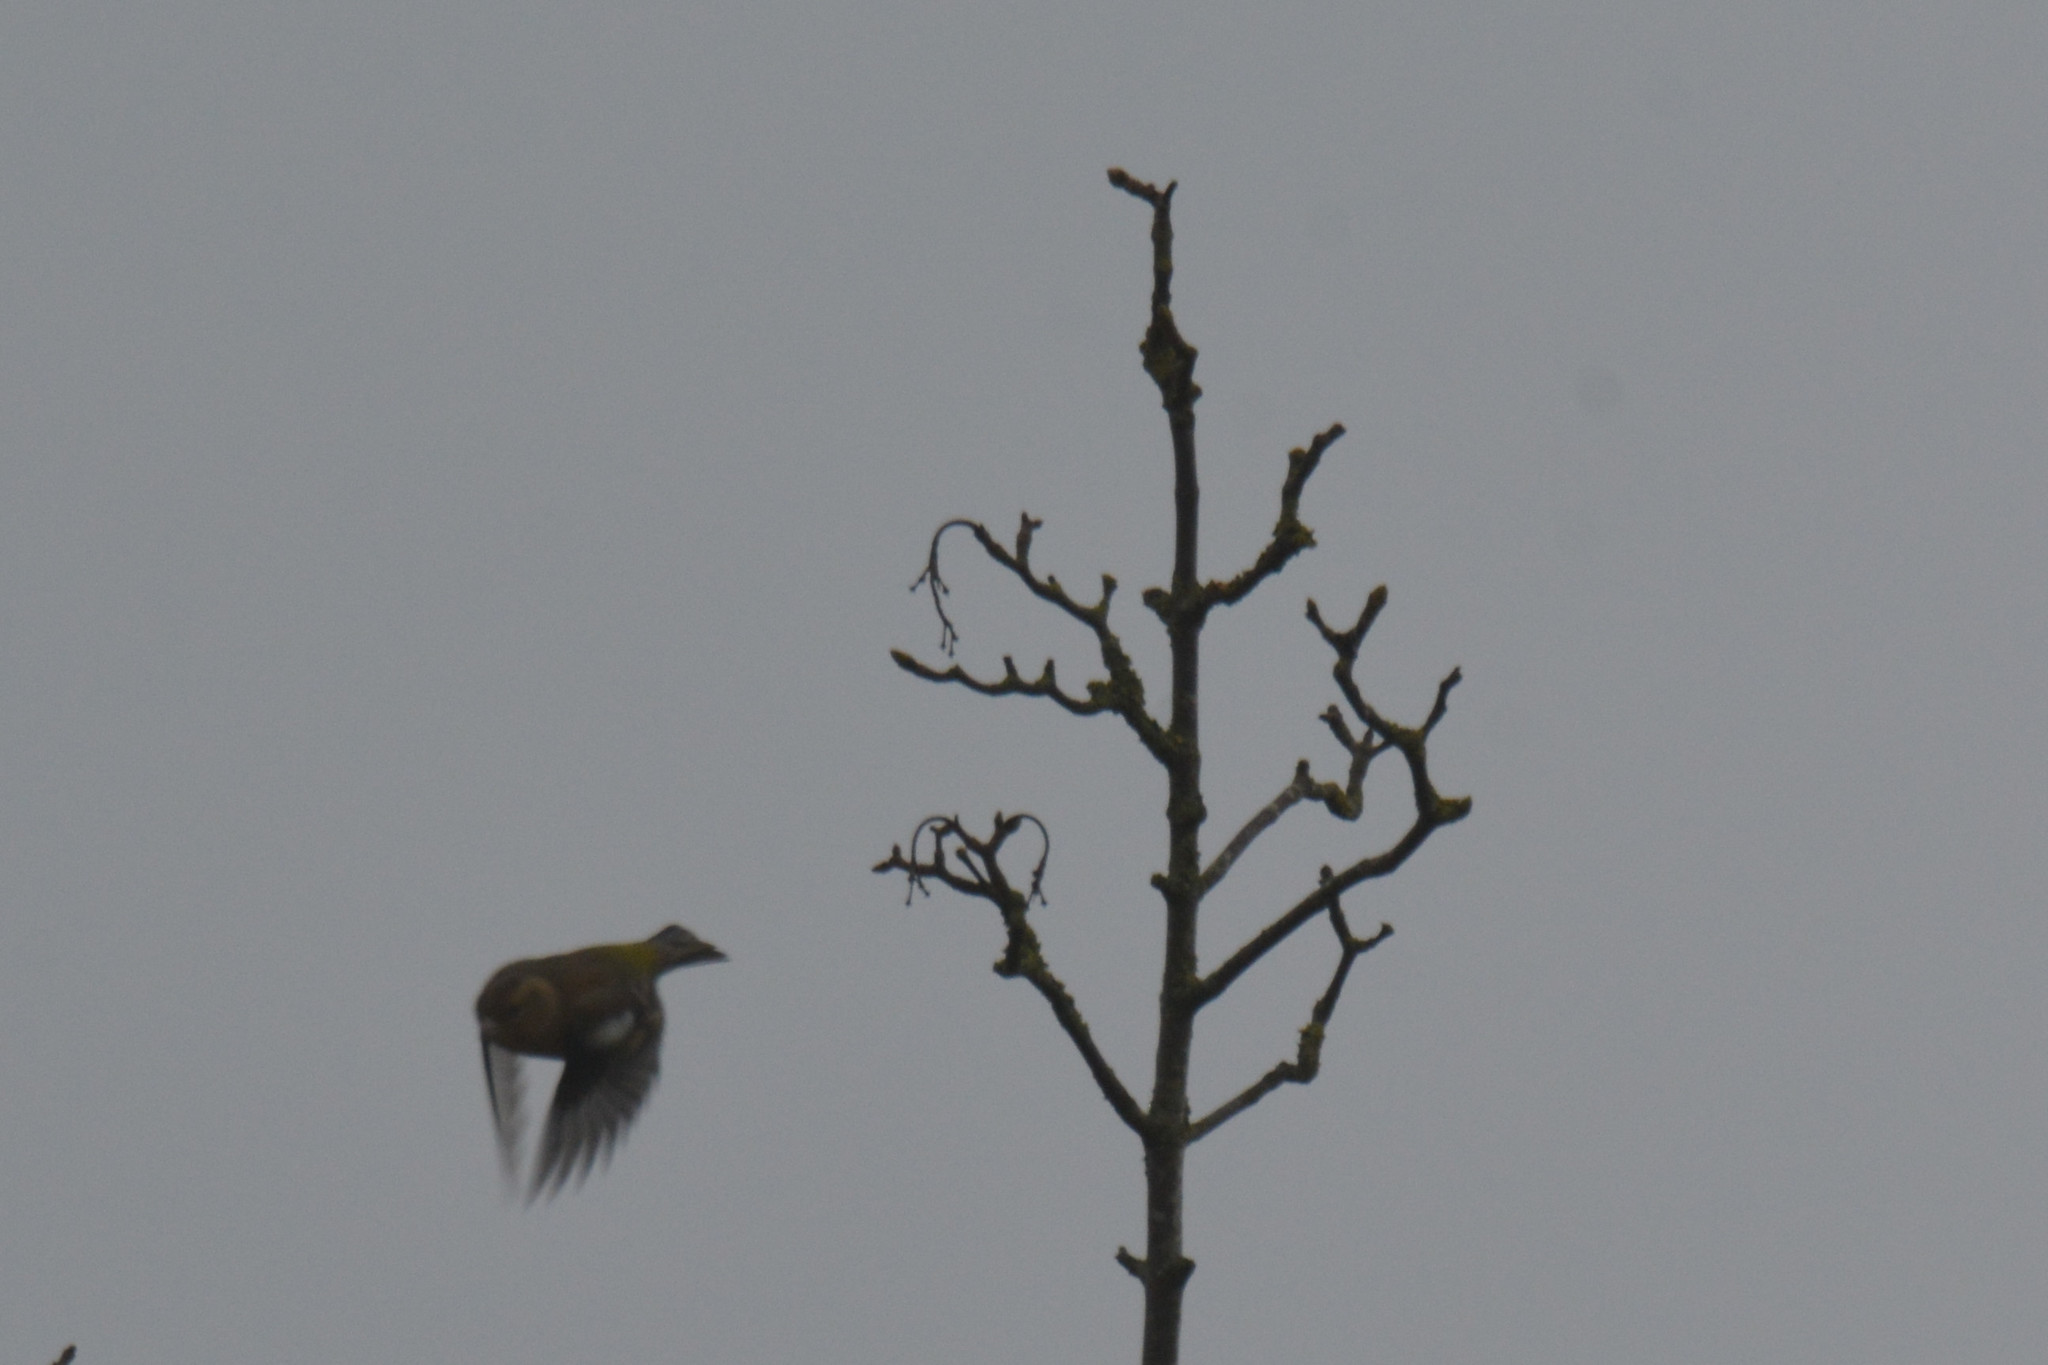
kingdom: Animalia
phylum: Chordata
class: Aves
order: Passeriformes
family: Fringillidae
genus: Fringilla
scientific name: Fringilla coelebs
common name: Common chaffinch
